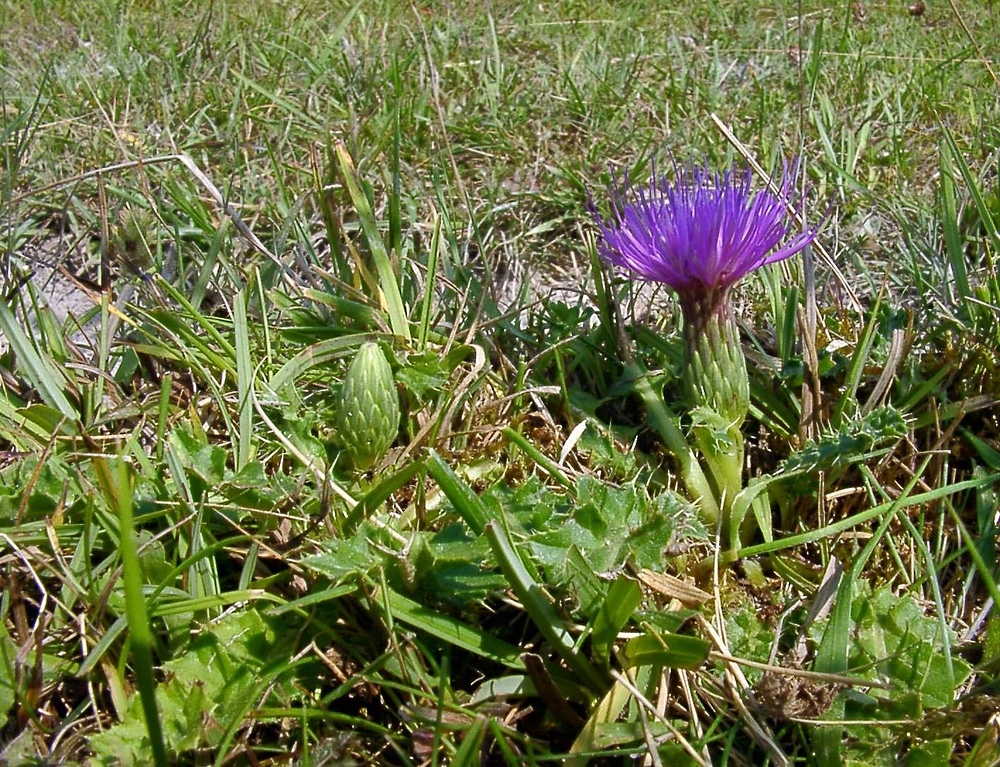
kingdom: Plantae
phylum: Tracheophyta
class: Magnoliopsida
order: Asterales
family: Asteraceae
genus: Cirsium
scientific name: Cirsium acaulon
